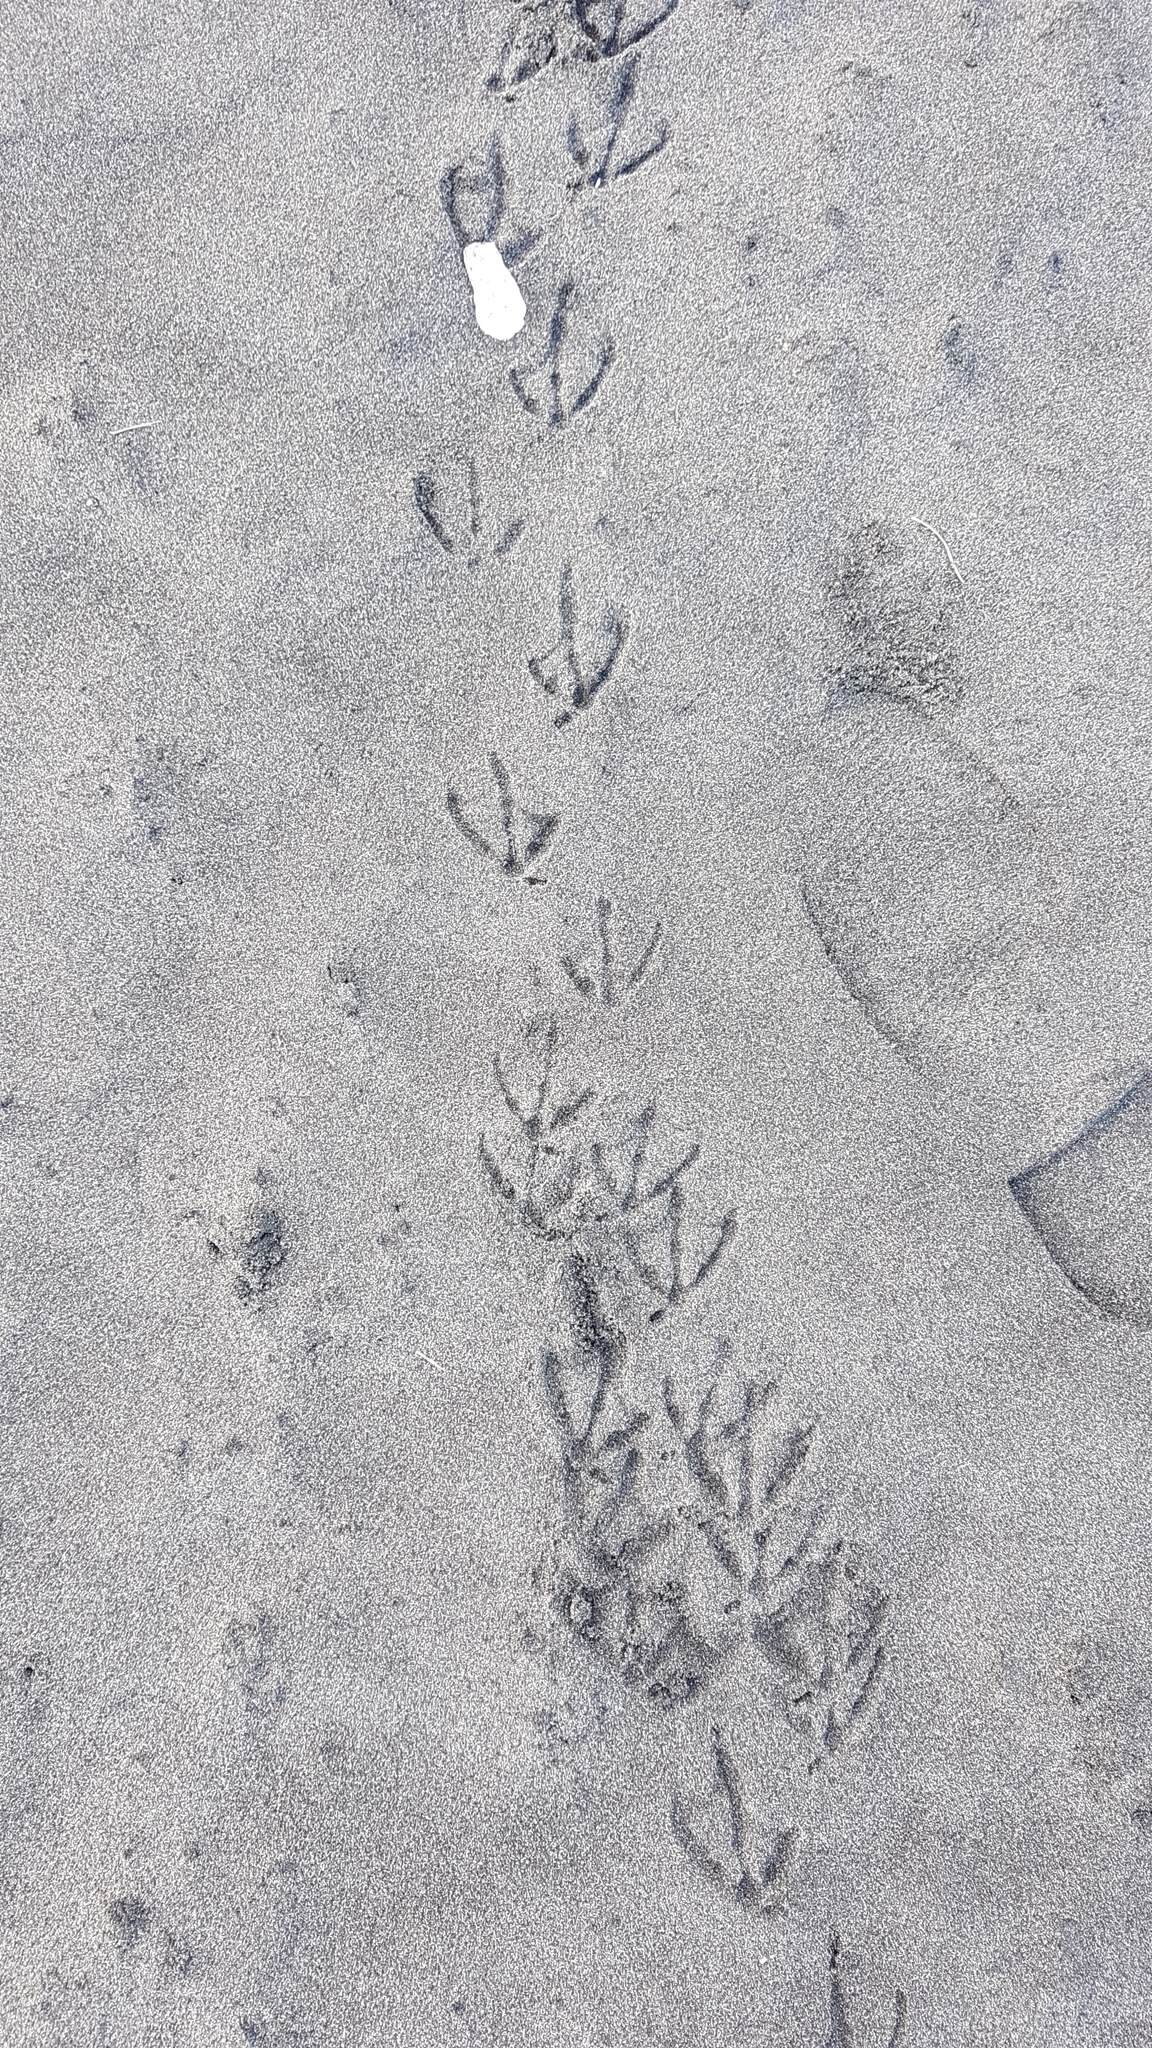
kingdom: Animalia
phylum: Chordata
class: Aves
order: Charadriiformes
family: Laridae
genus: Hydroprogne
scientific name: Hydroprogne caspia
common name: Caspian tern
